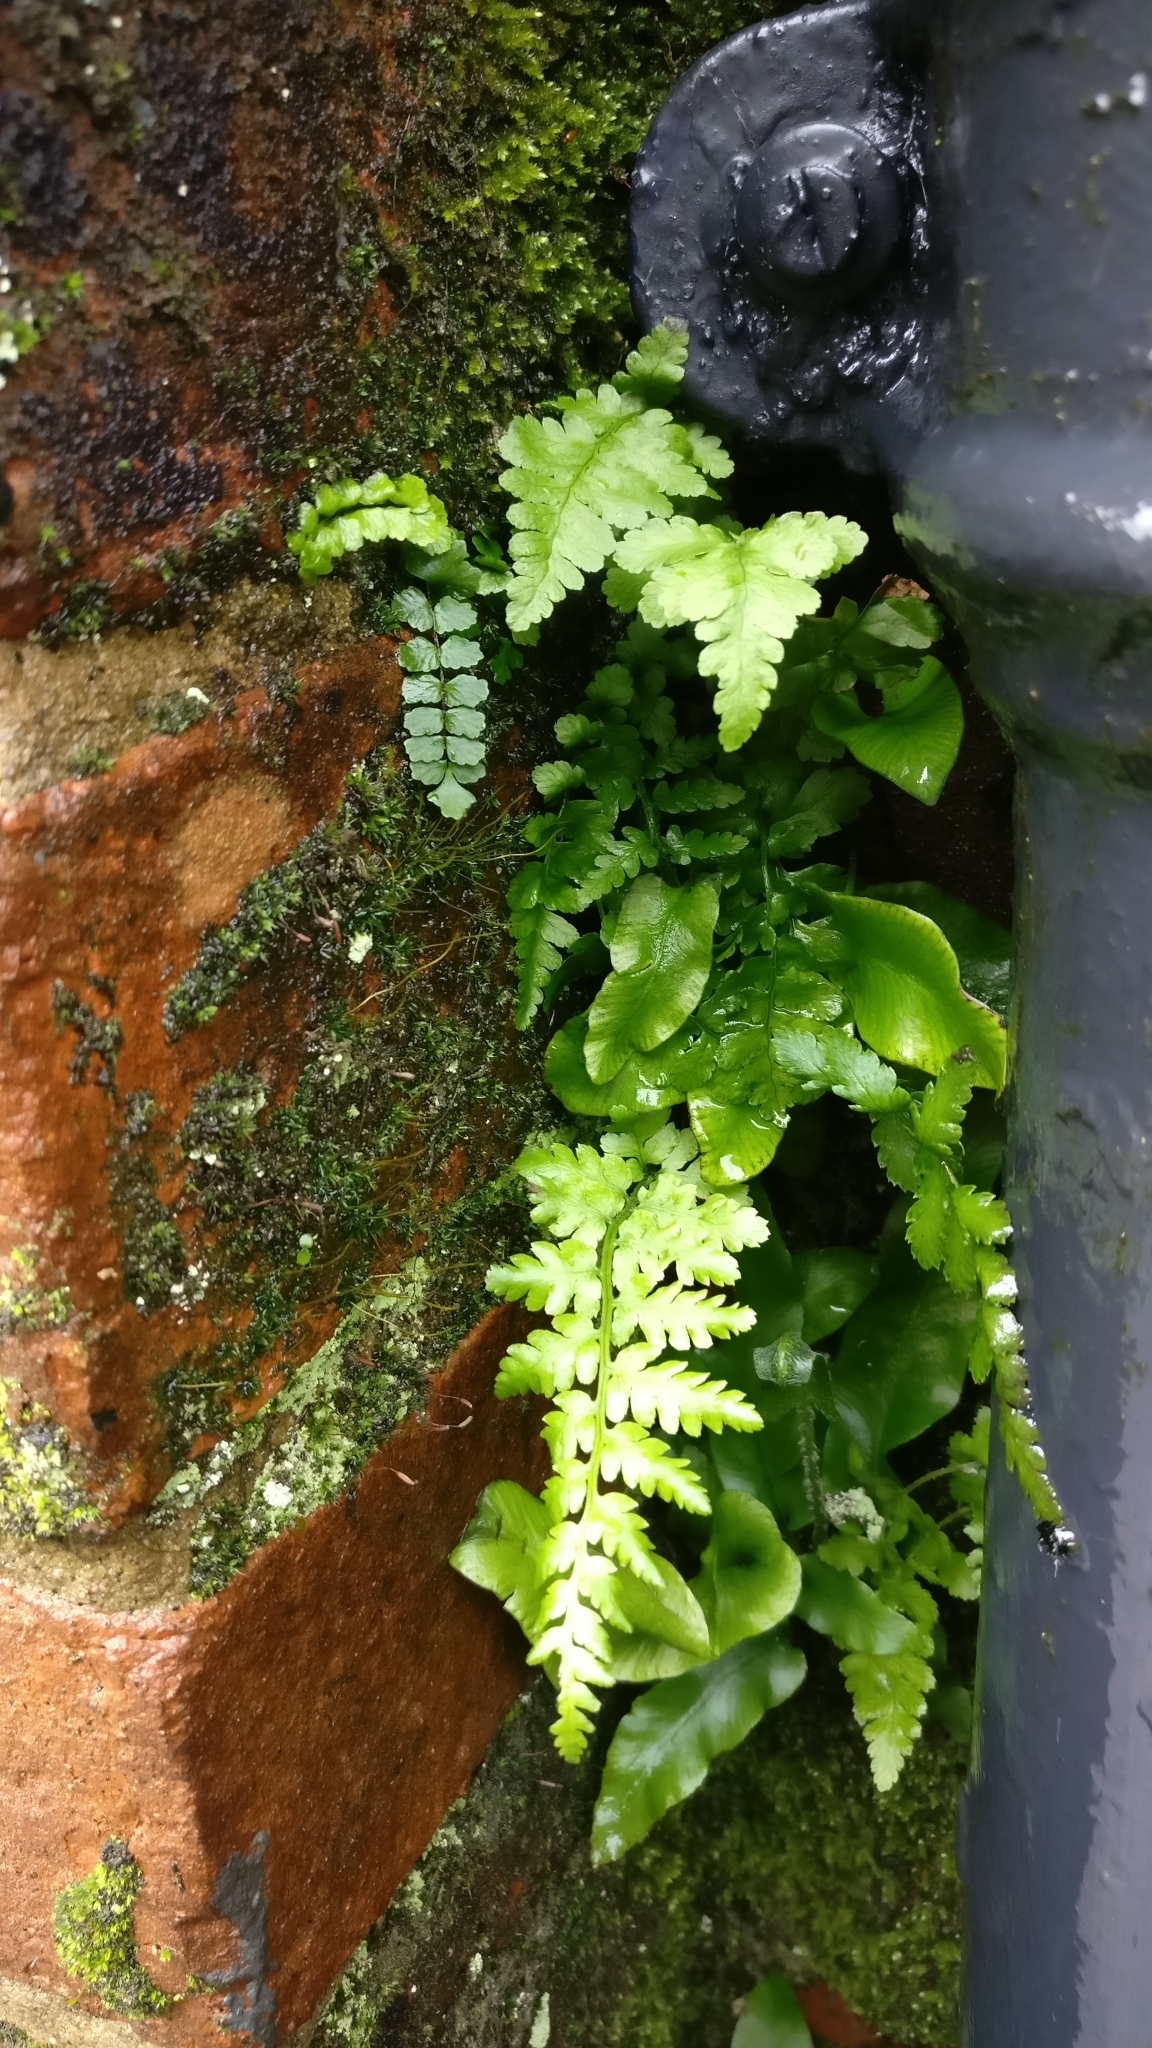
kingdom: Plantae
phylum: Tracheophyta
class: Polypodiopsida
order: Polypodiales
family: Aspleniaceae
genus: Asplenium
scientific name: Asplenium adiantum-nigrum
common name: Black spleenwort
